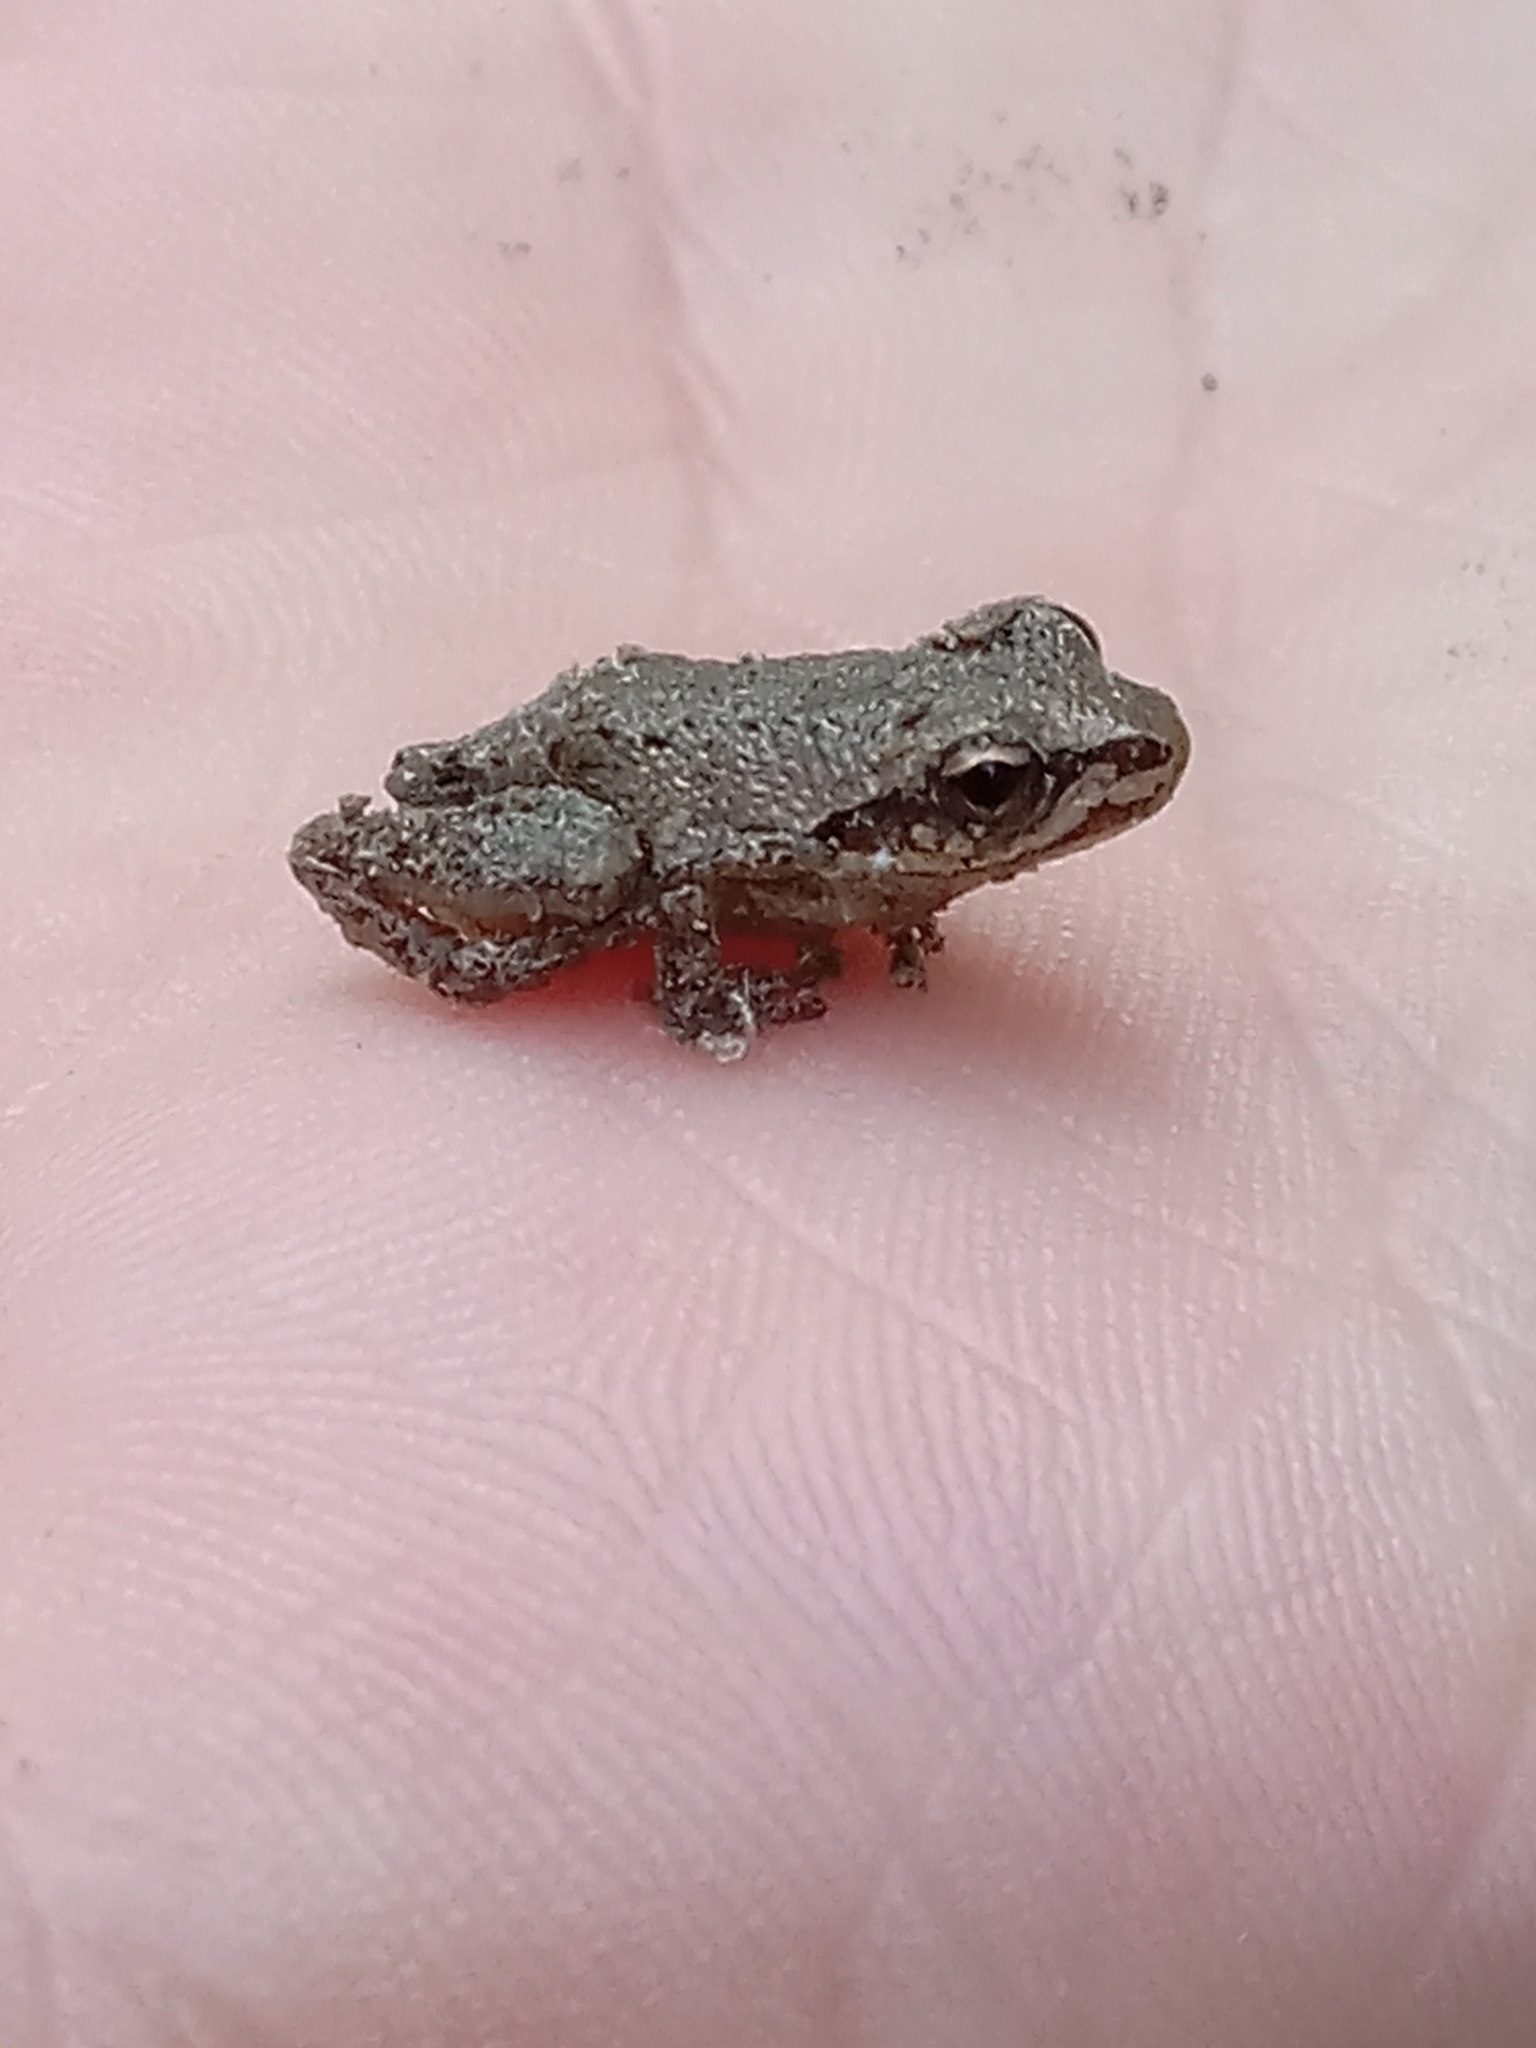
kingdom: Animalia
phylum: Chordata
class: Amphibia
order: Anura
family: Hylidae
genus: Pseudacris
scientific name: Pseudacris fouquettei
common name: Cajun chorus frog
